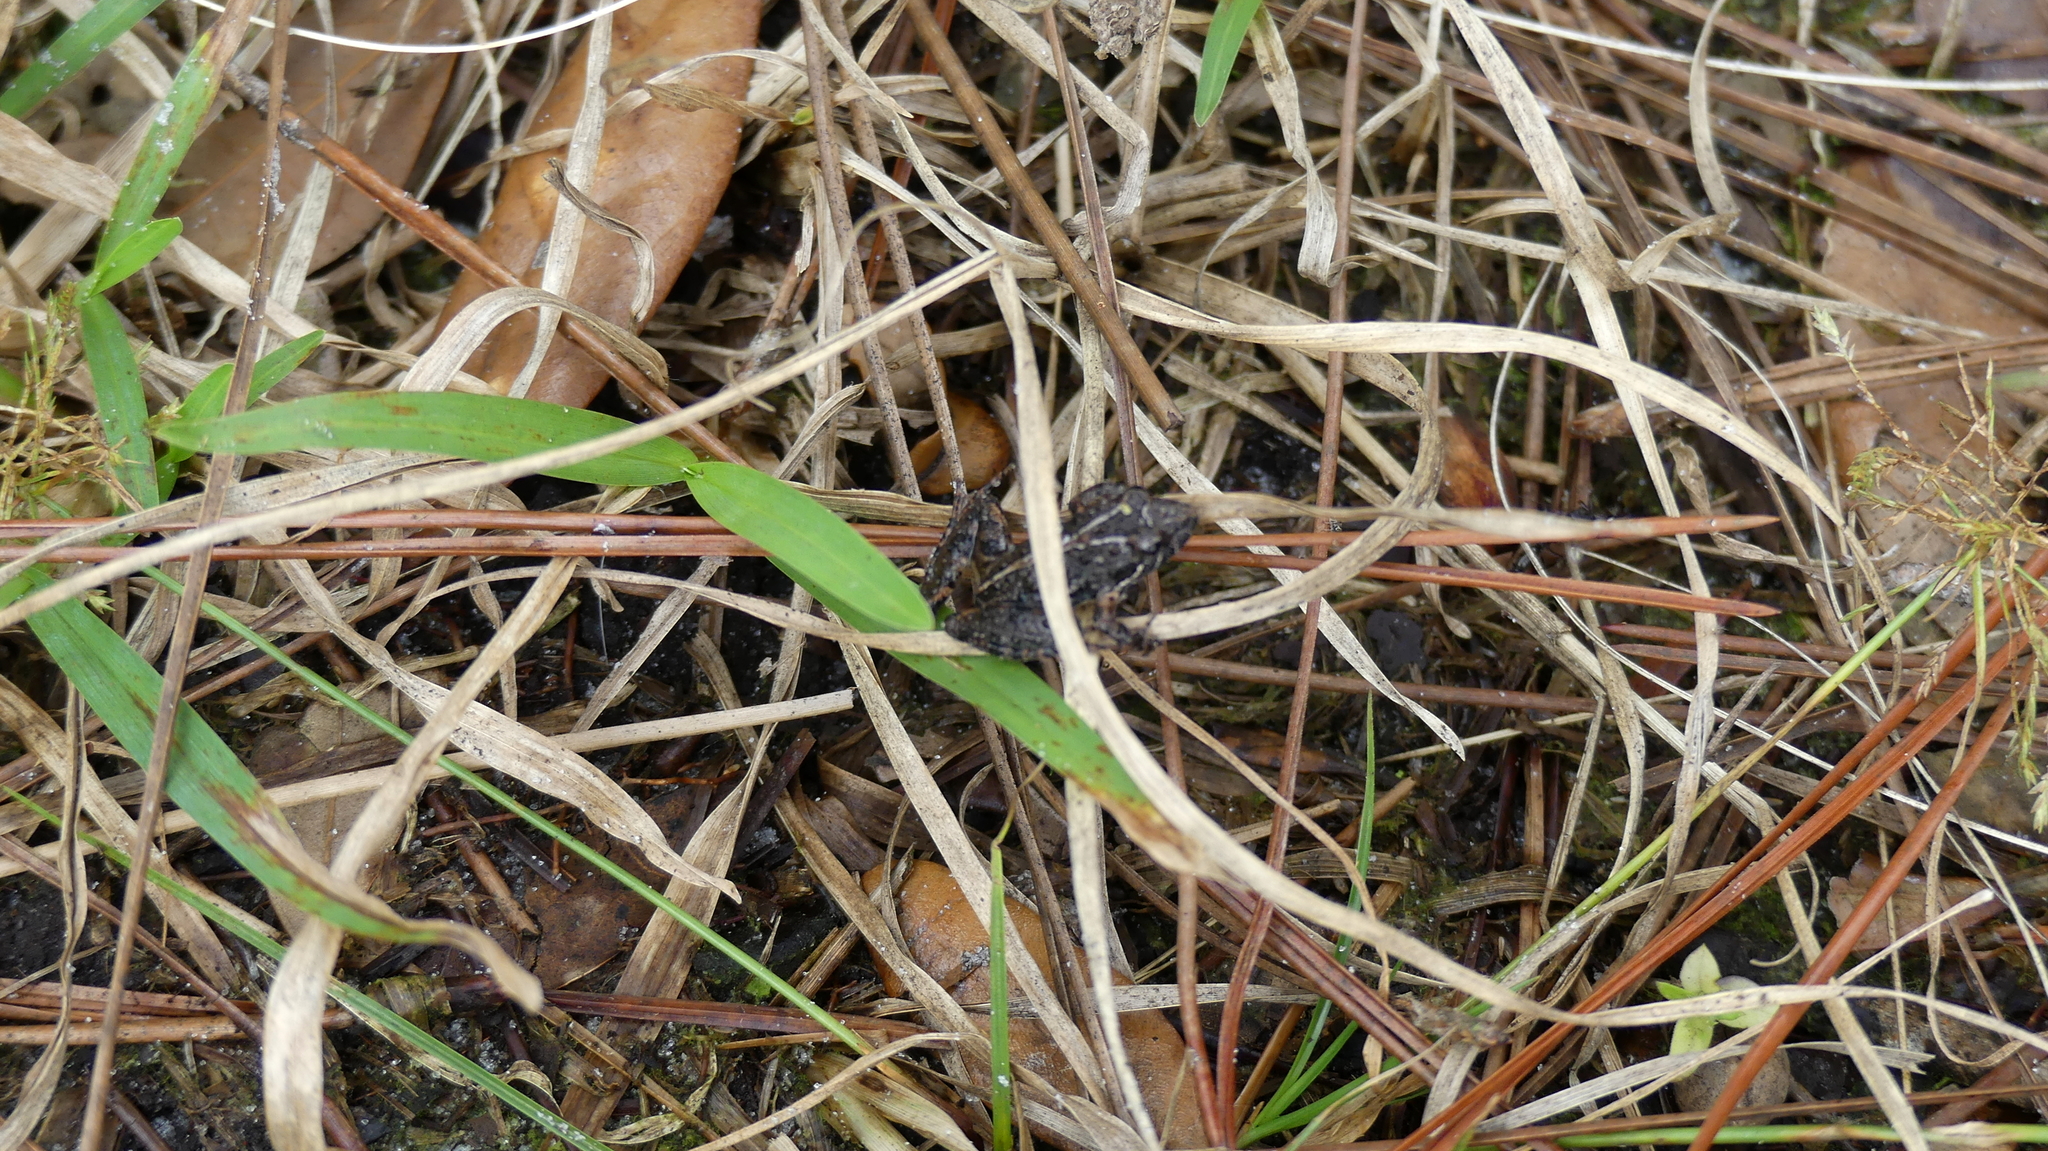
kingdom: Animalia
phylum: Chordata
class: Amphibia
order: Anura
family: Hylidae
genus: Acris
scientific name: Acris gryllus
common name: Southern cricket frog
